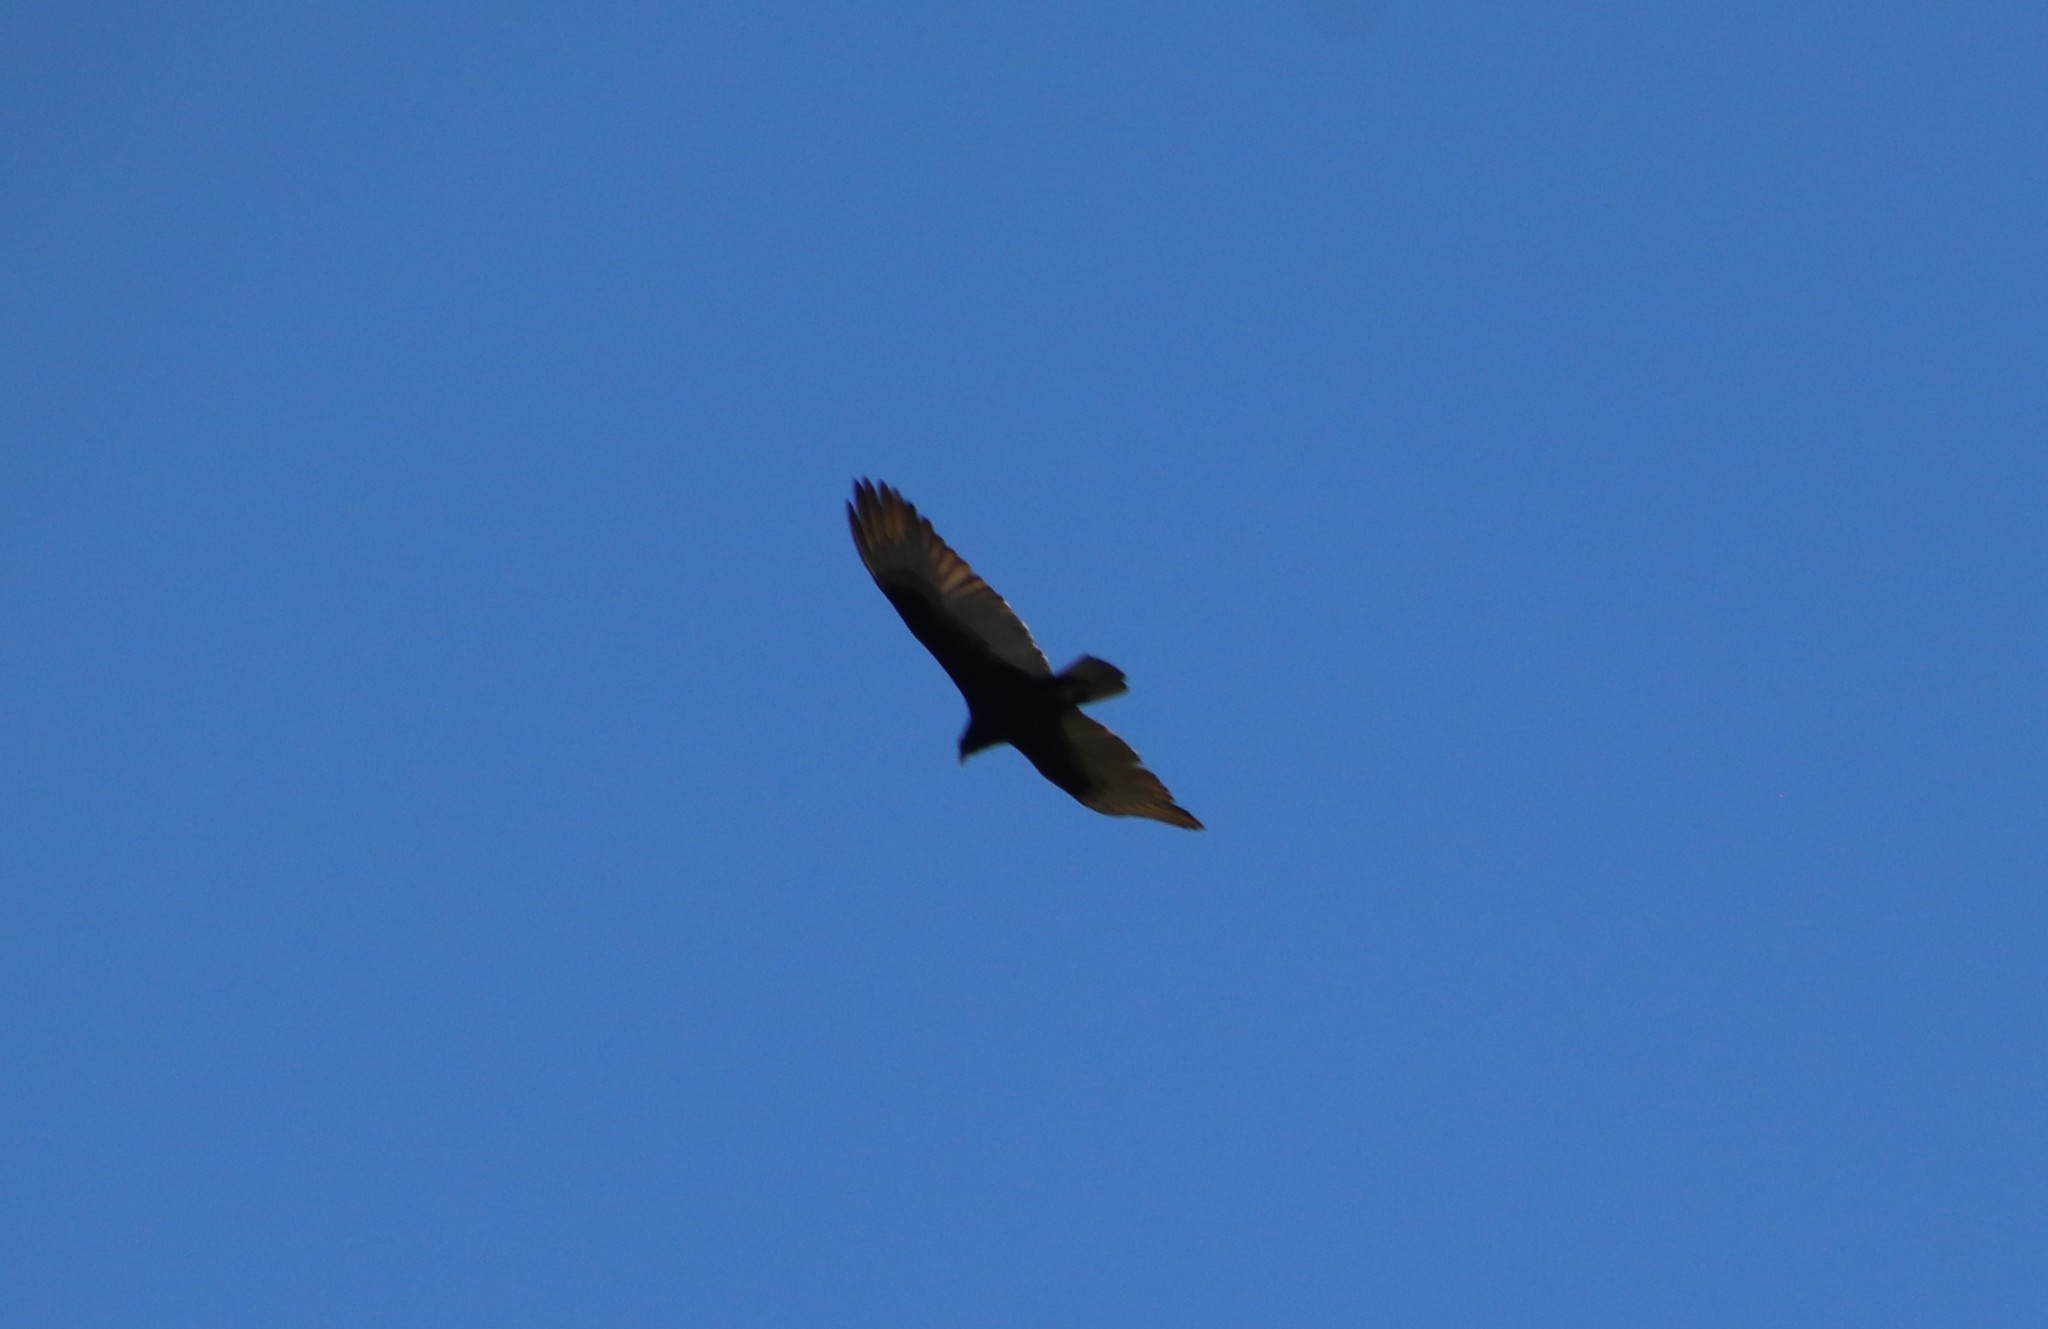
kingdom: Animalia
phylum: Chordata
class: Aves
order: Accipitriformes
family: Cathartidae
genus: Cathartes
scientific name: Cathartes aura
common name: Turkey vulture
